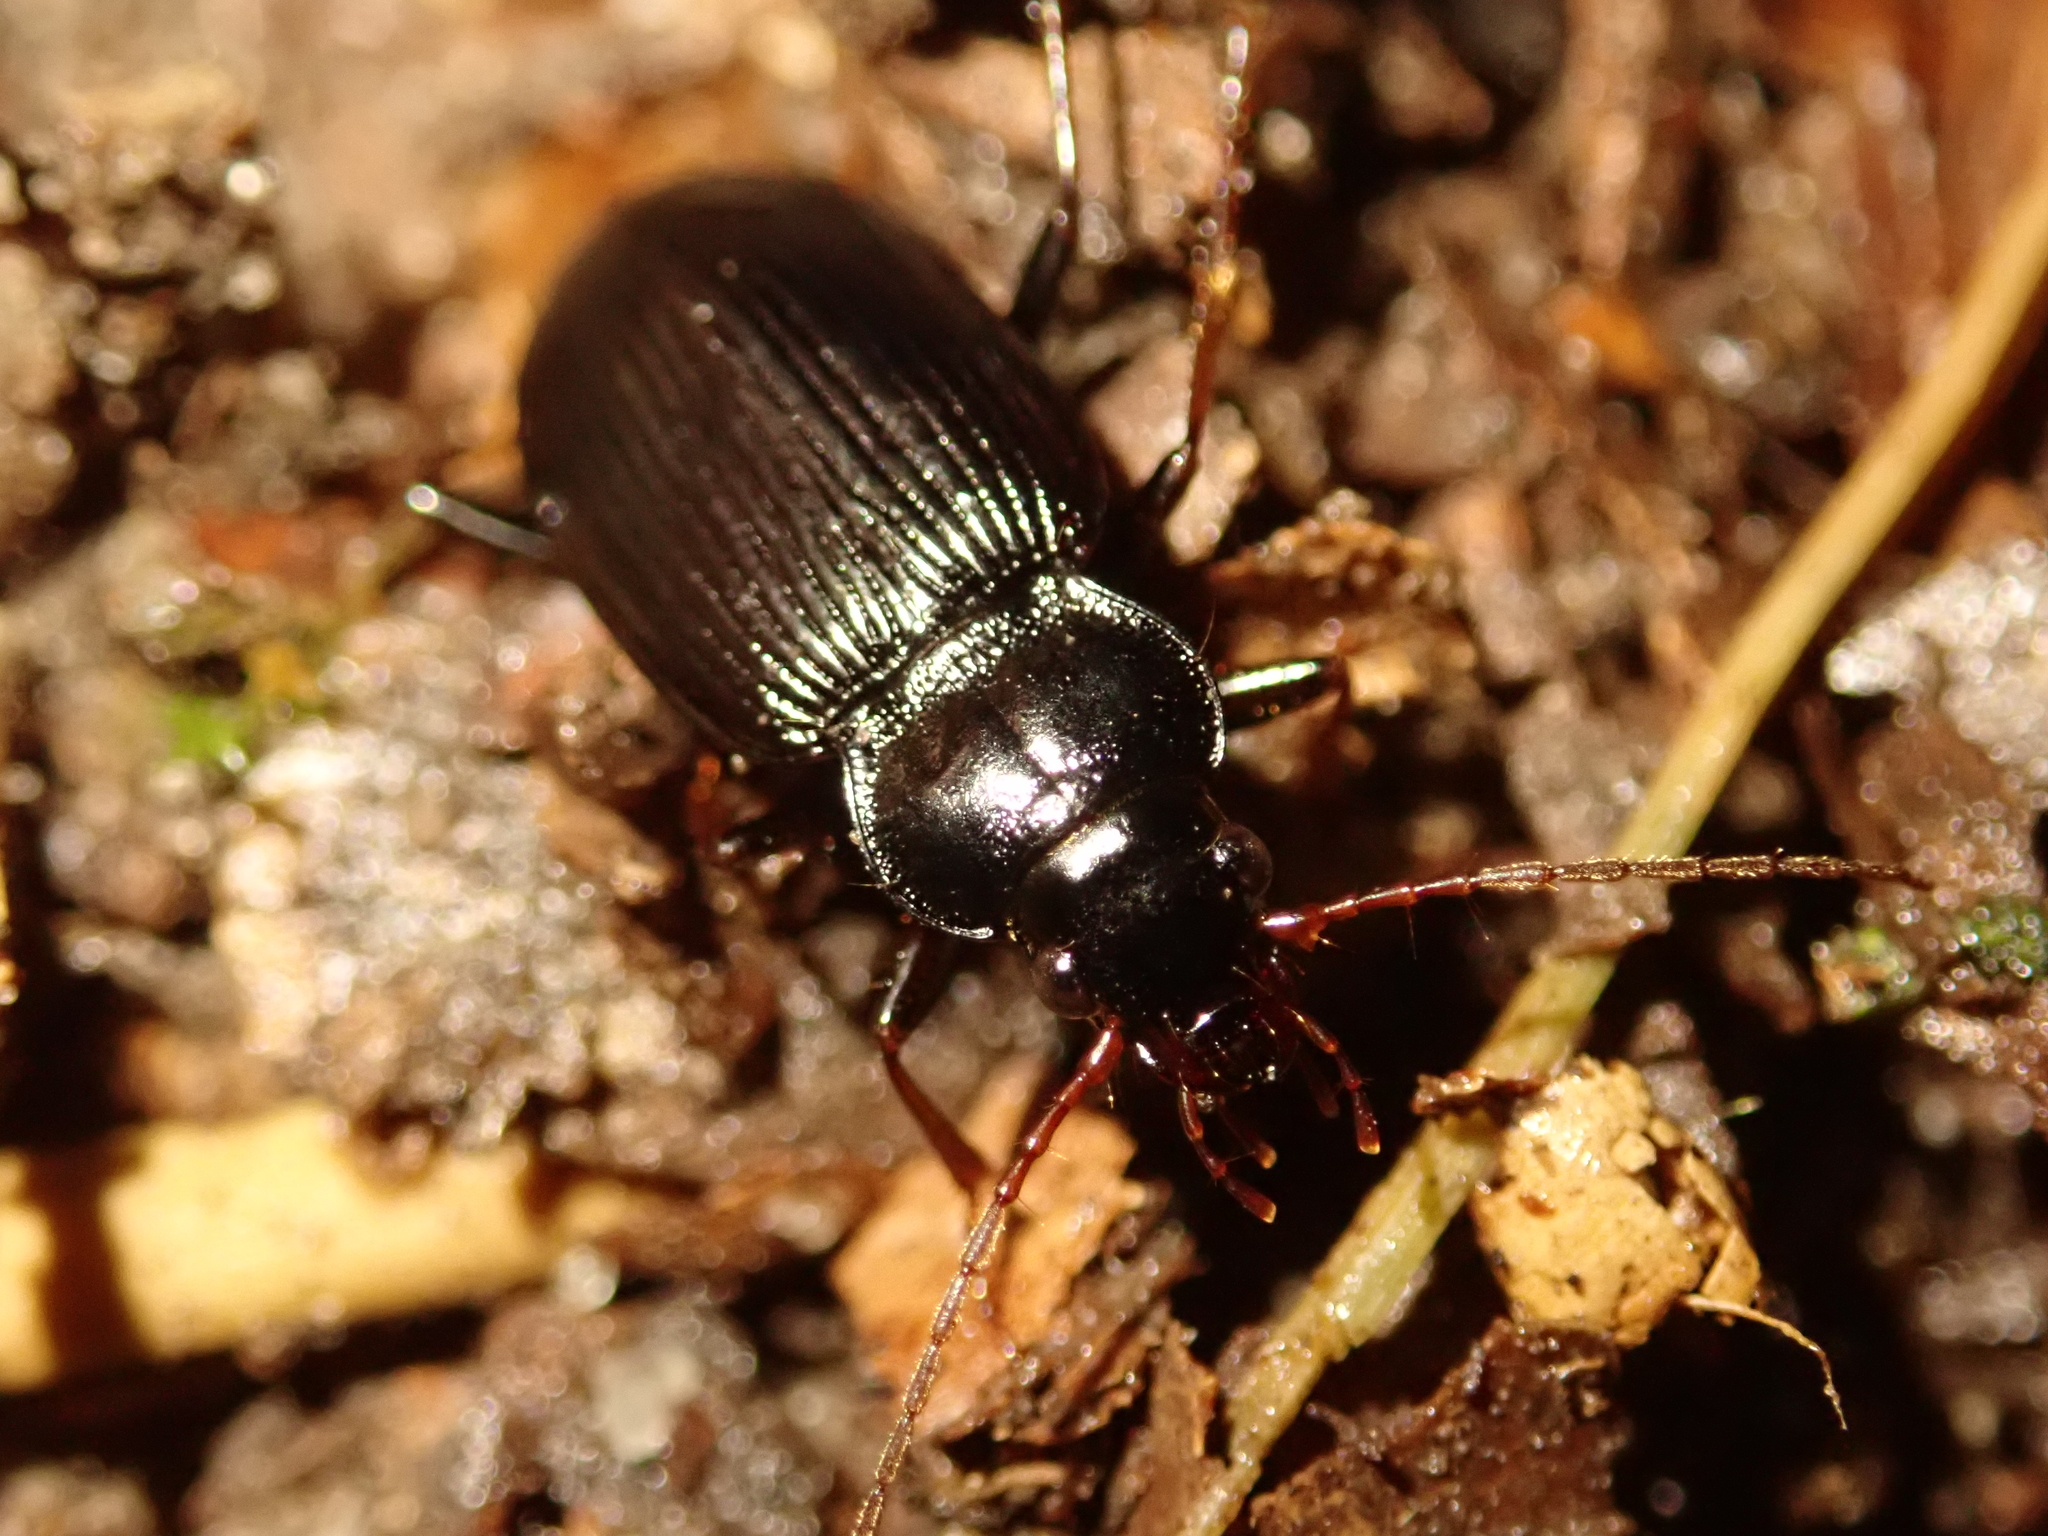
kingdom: Animalia
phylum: Arthropoda
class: Insecta
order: Coleoptera
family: Carabidae
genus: Nebria
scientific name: Nebria brevicollis
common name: Short-necked gazelle beetle
